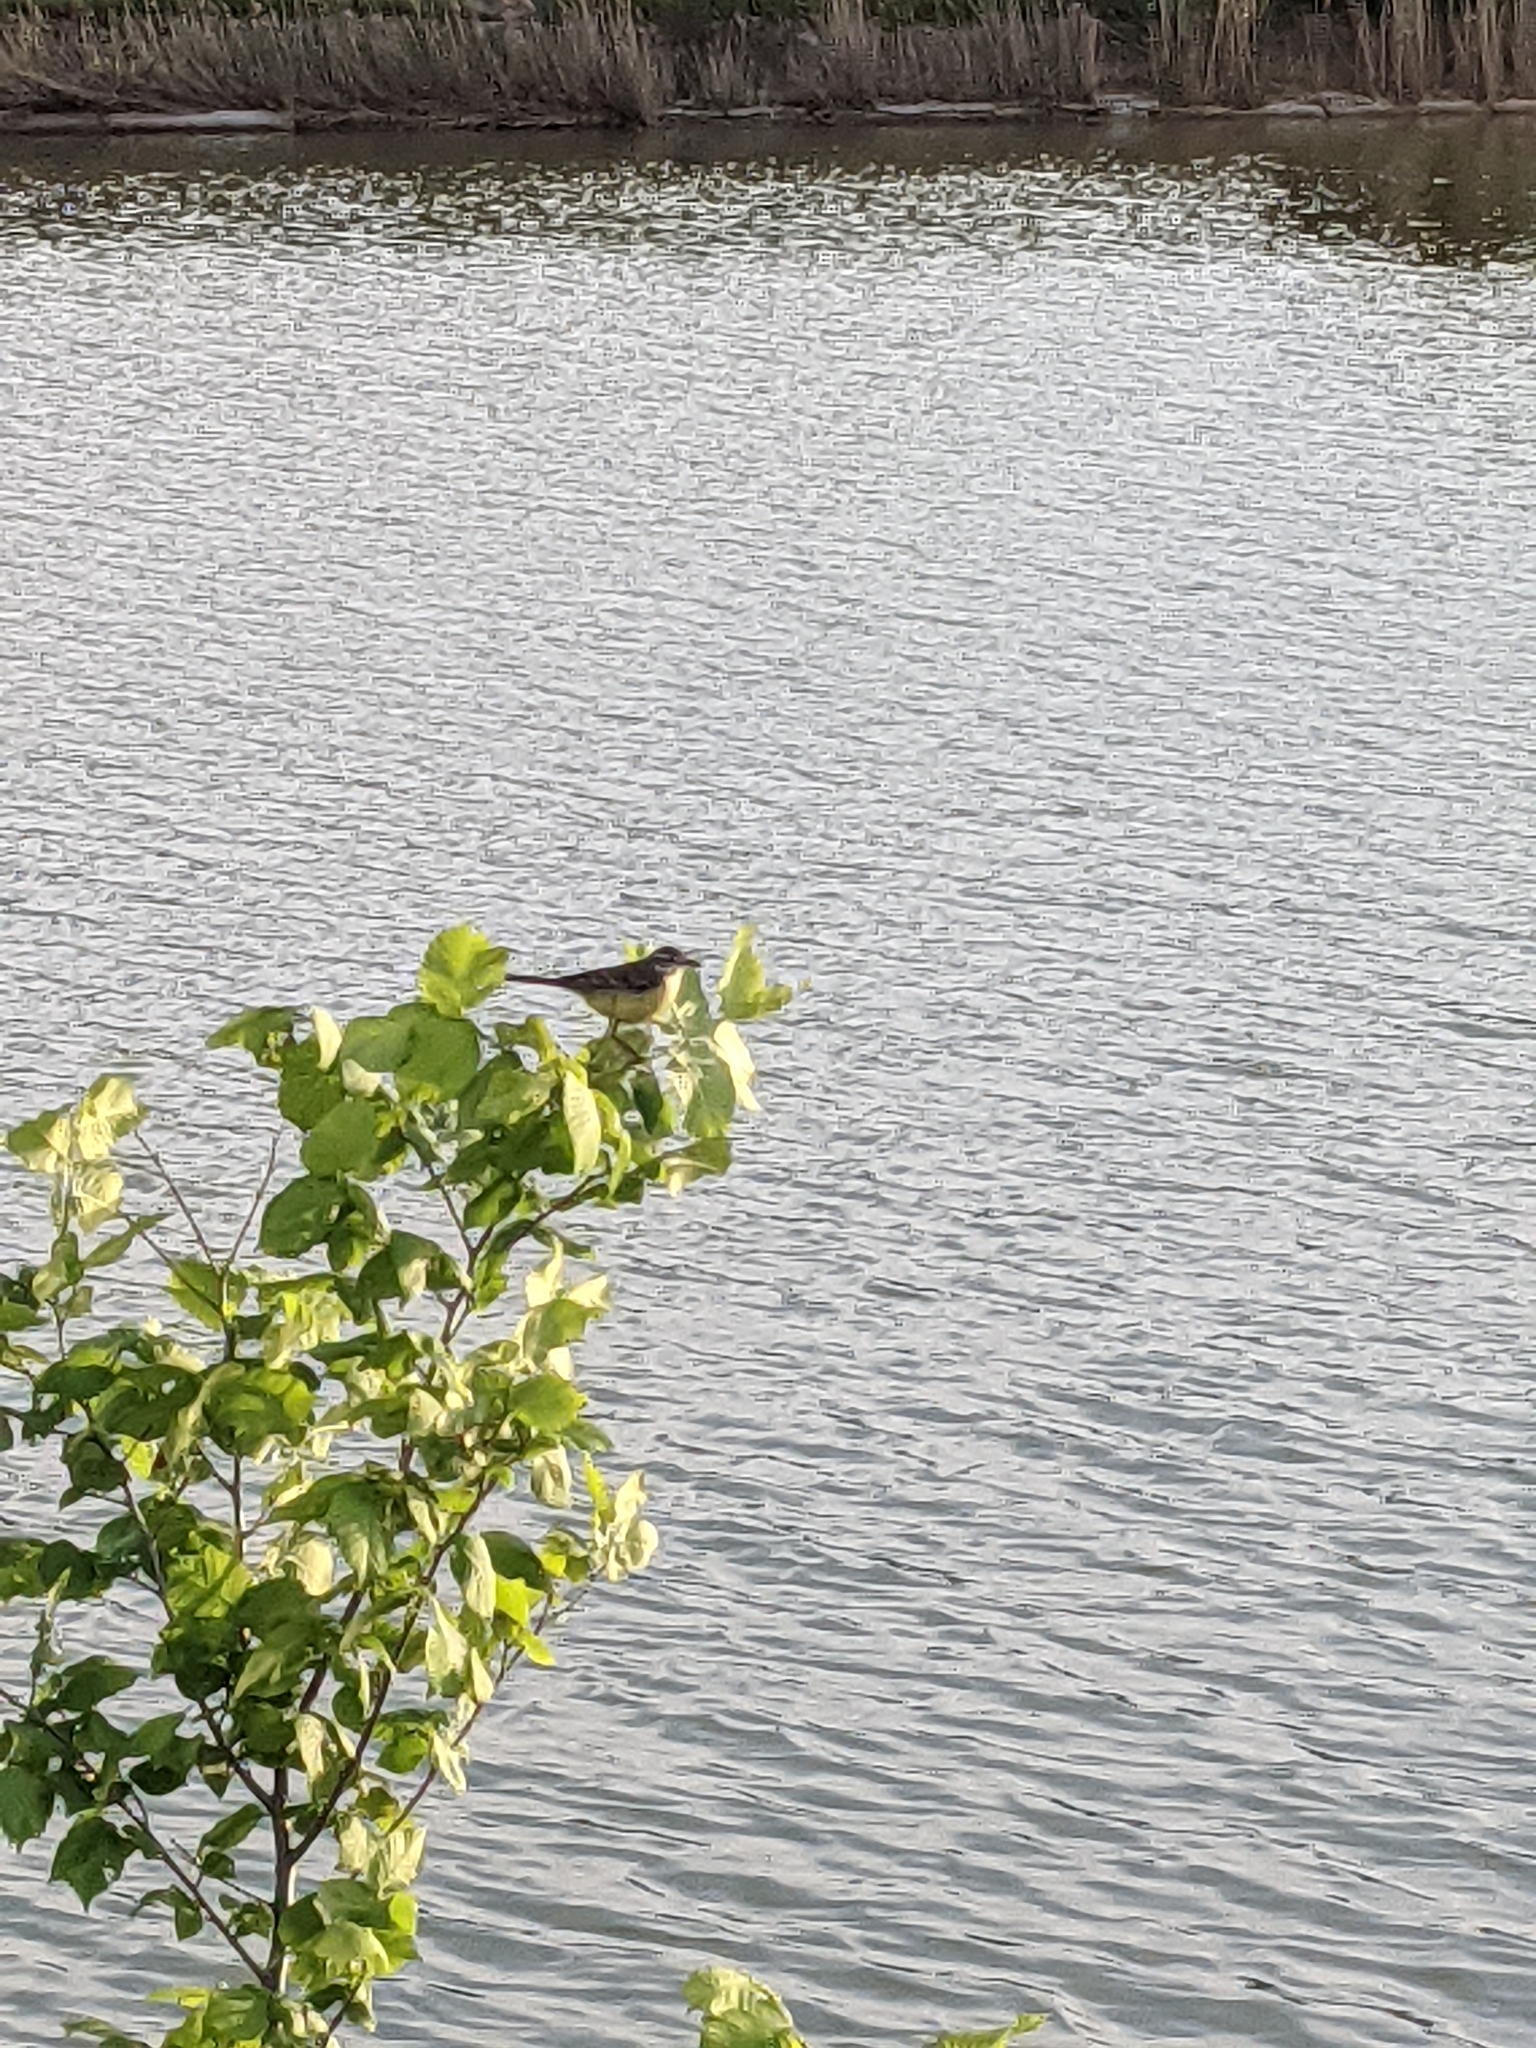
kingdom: Animalia
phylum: Chordata
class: Aves
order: Passeriformes
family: Motacillidae
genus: Motacilla
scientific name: Motacilla flava
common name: Western yellow wagtail
